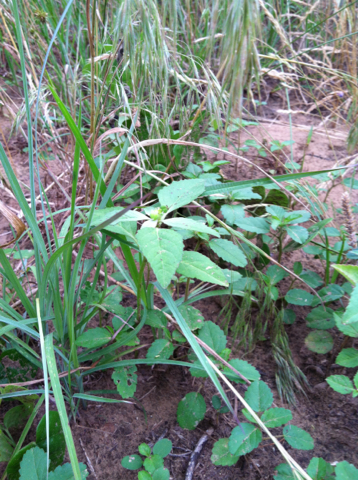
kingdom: Plantae
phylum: Tracheophyta
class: Magnoliopsida
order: Malpighiales
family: Euphorbiaceae
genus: Euphorbia
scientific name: Euphorbia dentata
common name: Dentate spurge
